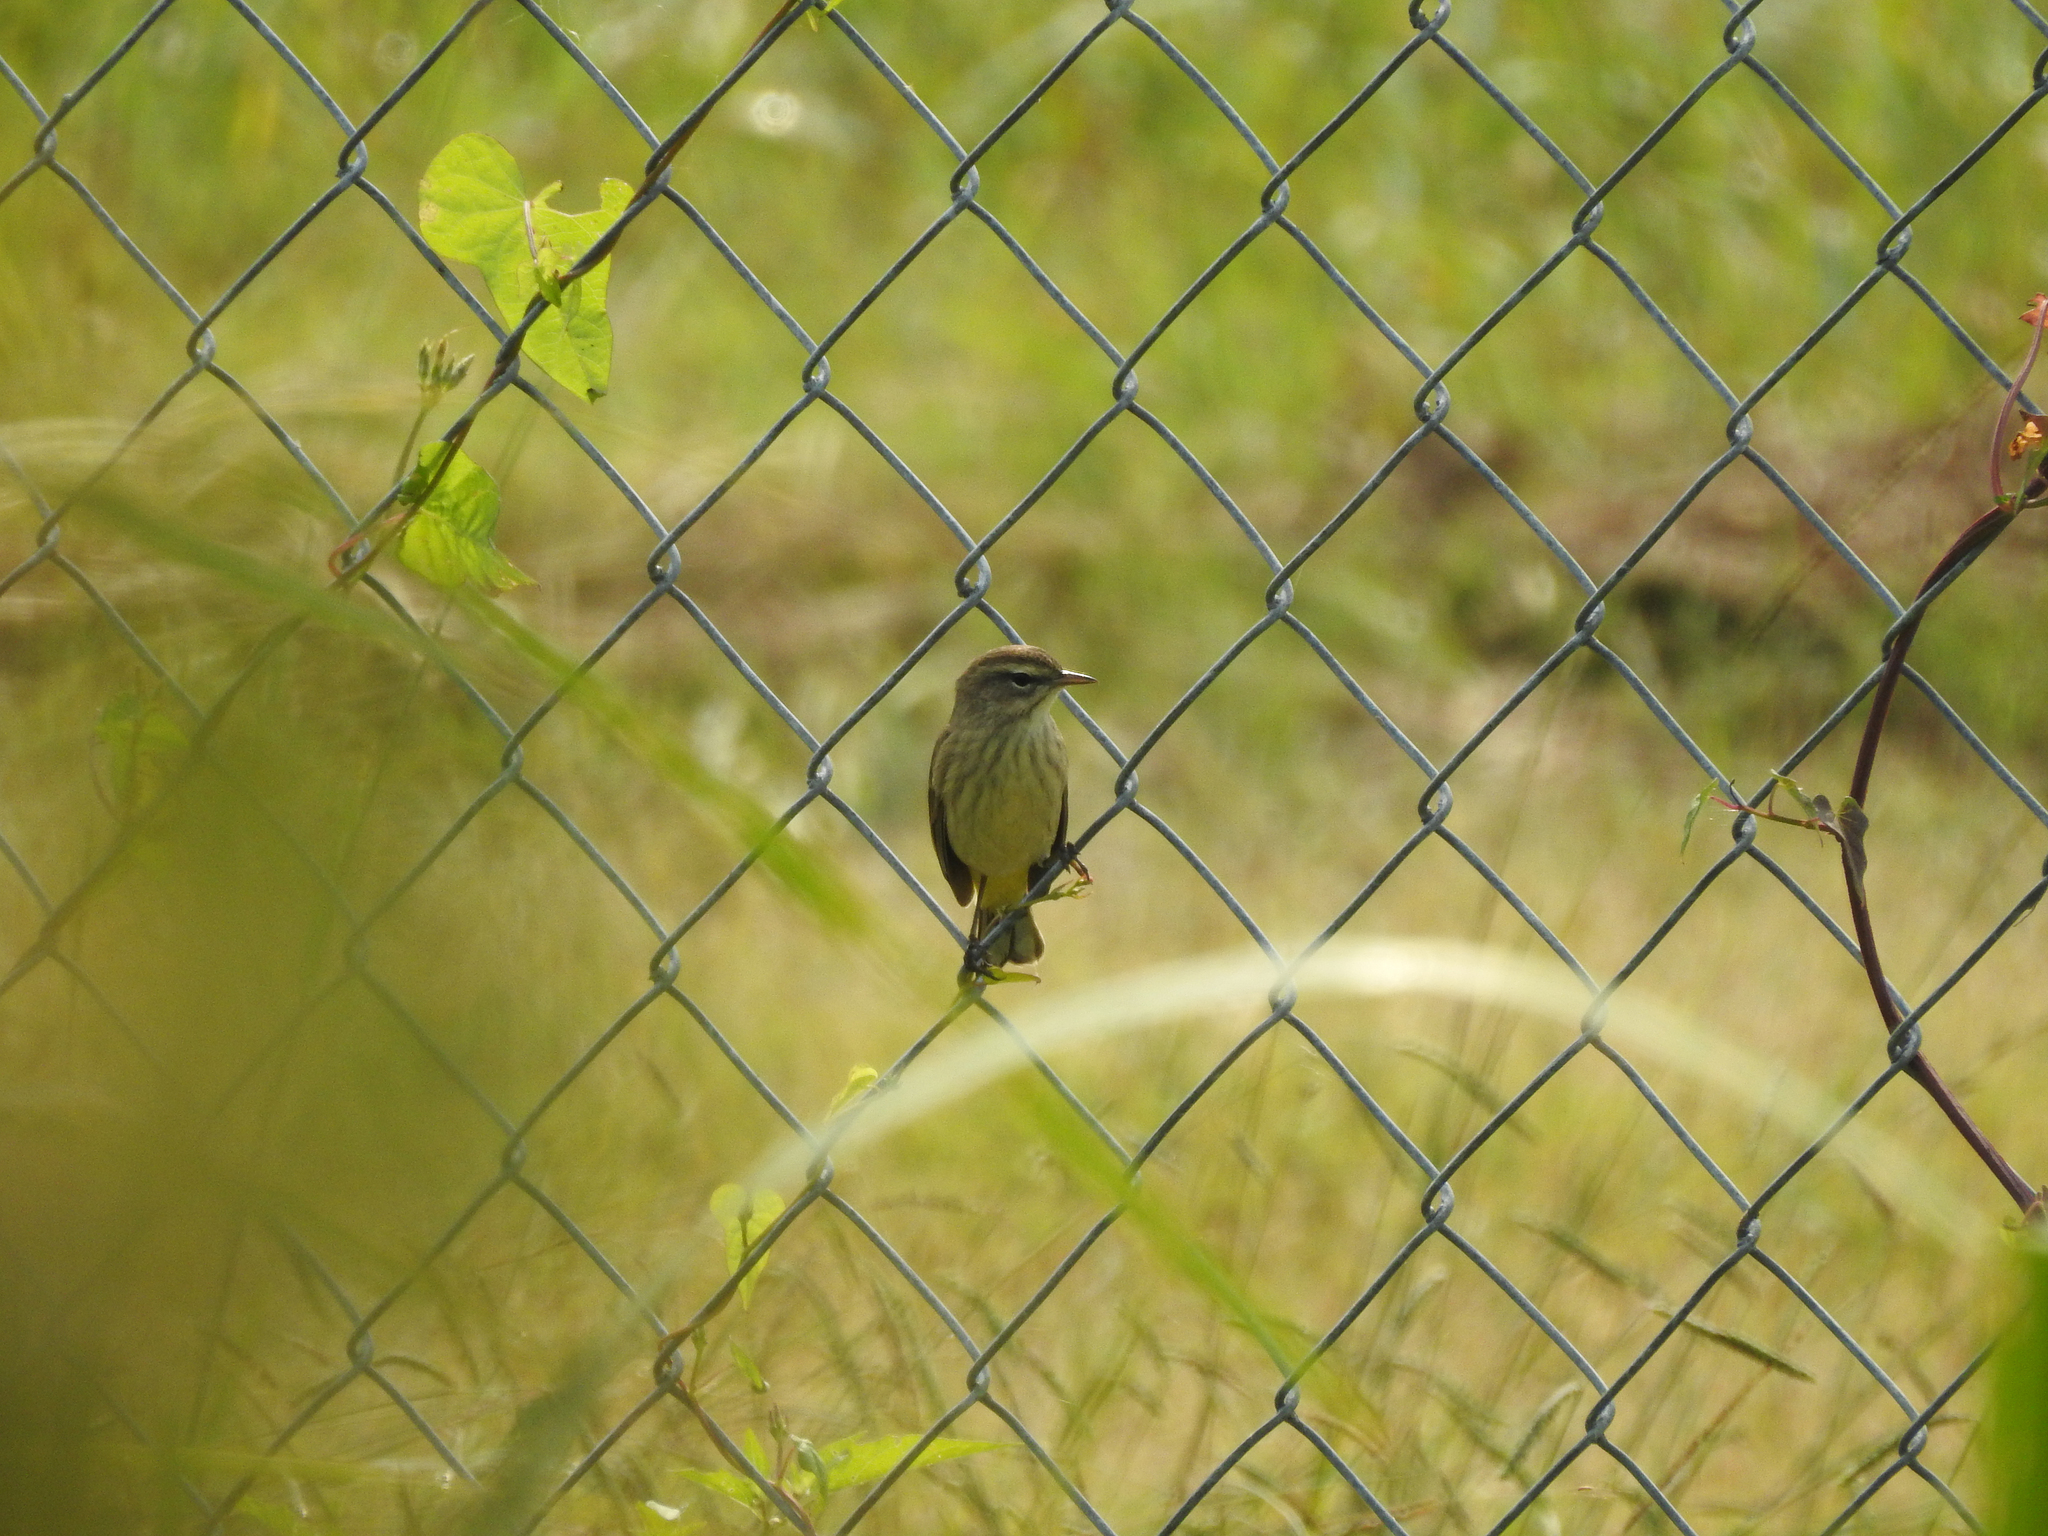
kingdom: Animalia
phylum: Chordata
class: Aves
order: Passeriformes
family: Parulidae
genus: Setophaga
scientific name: Setophaga palmarum
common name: Palm warbler
